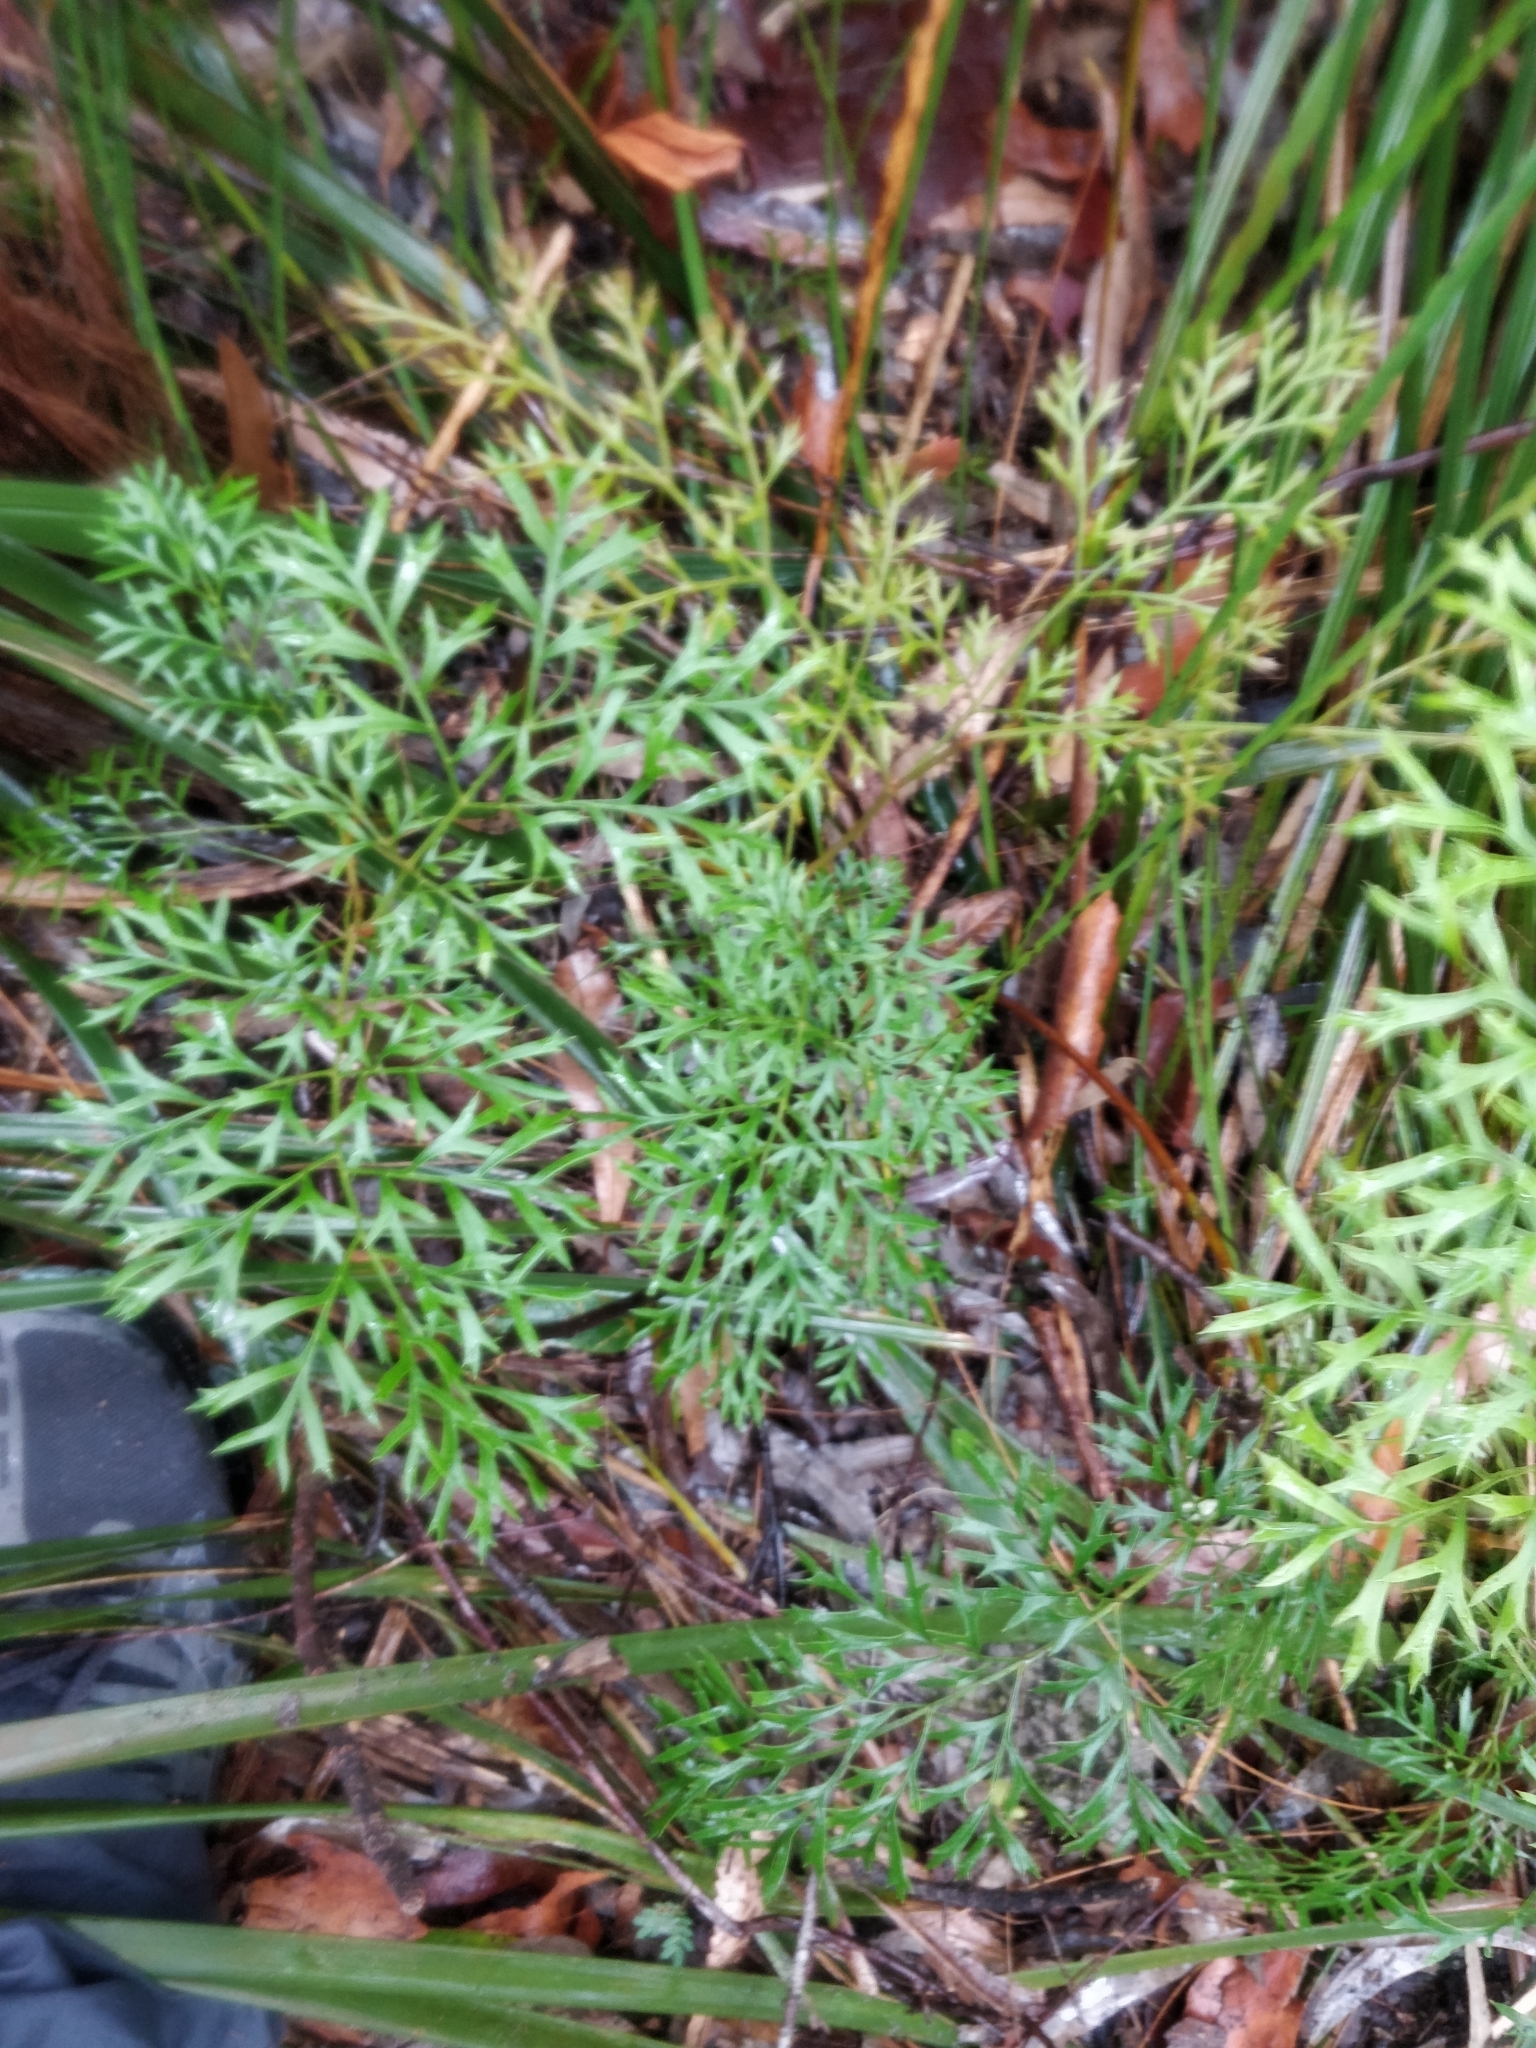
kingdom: Plantae
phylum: Tracheophyta
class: Magnoliopsida
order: Proteales
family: Proteaceae
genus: Lomatia
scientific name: Lomatia silaifolia
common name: Crinklebush
